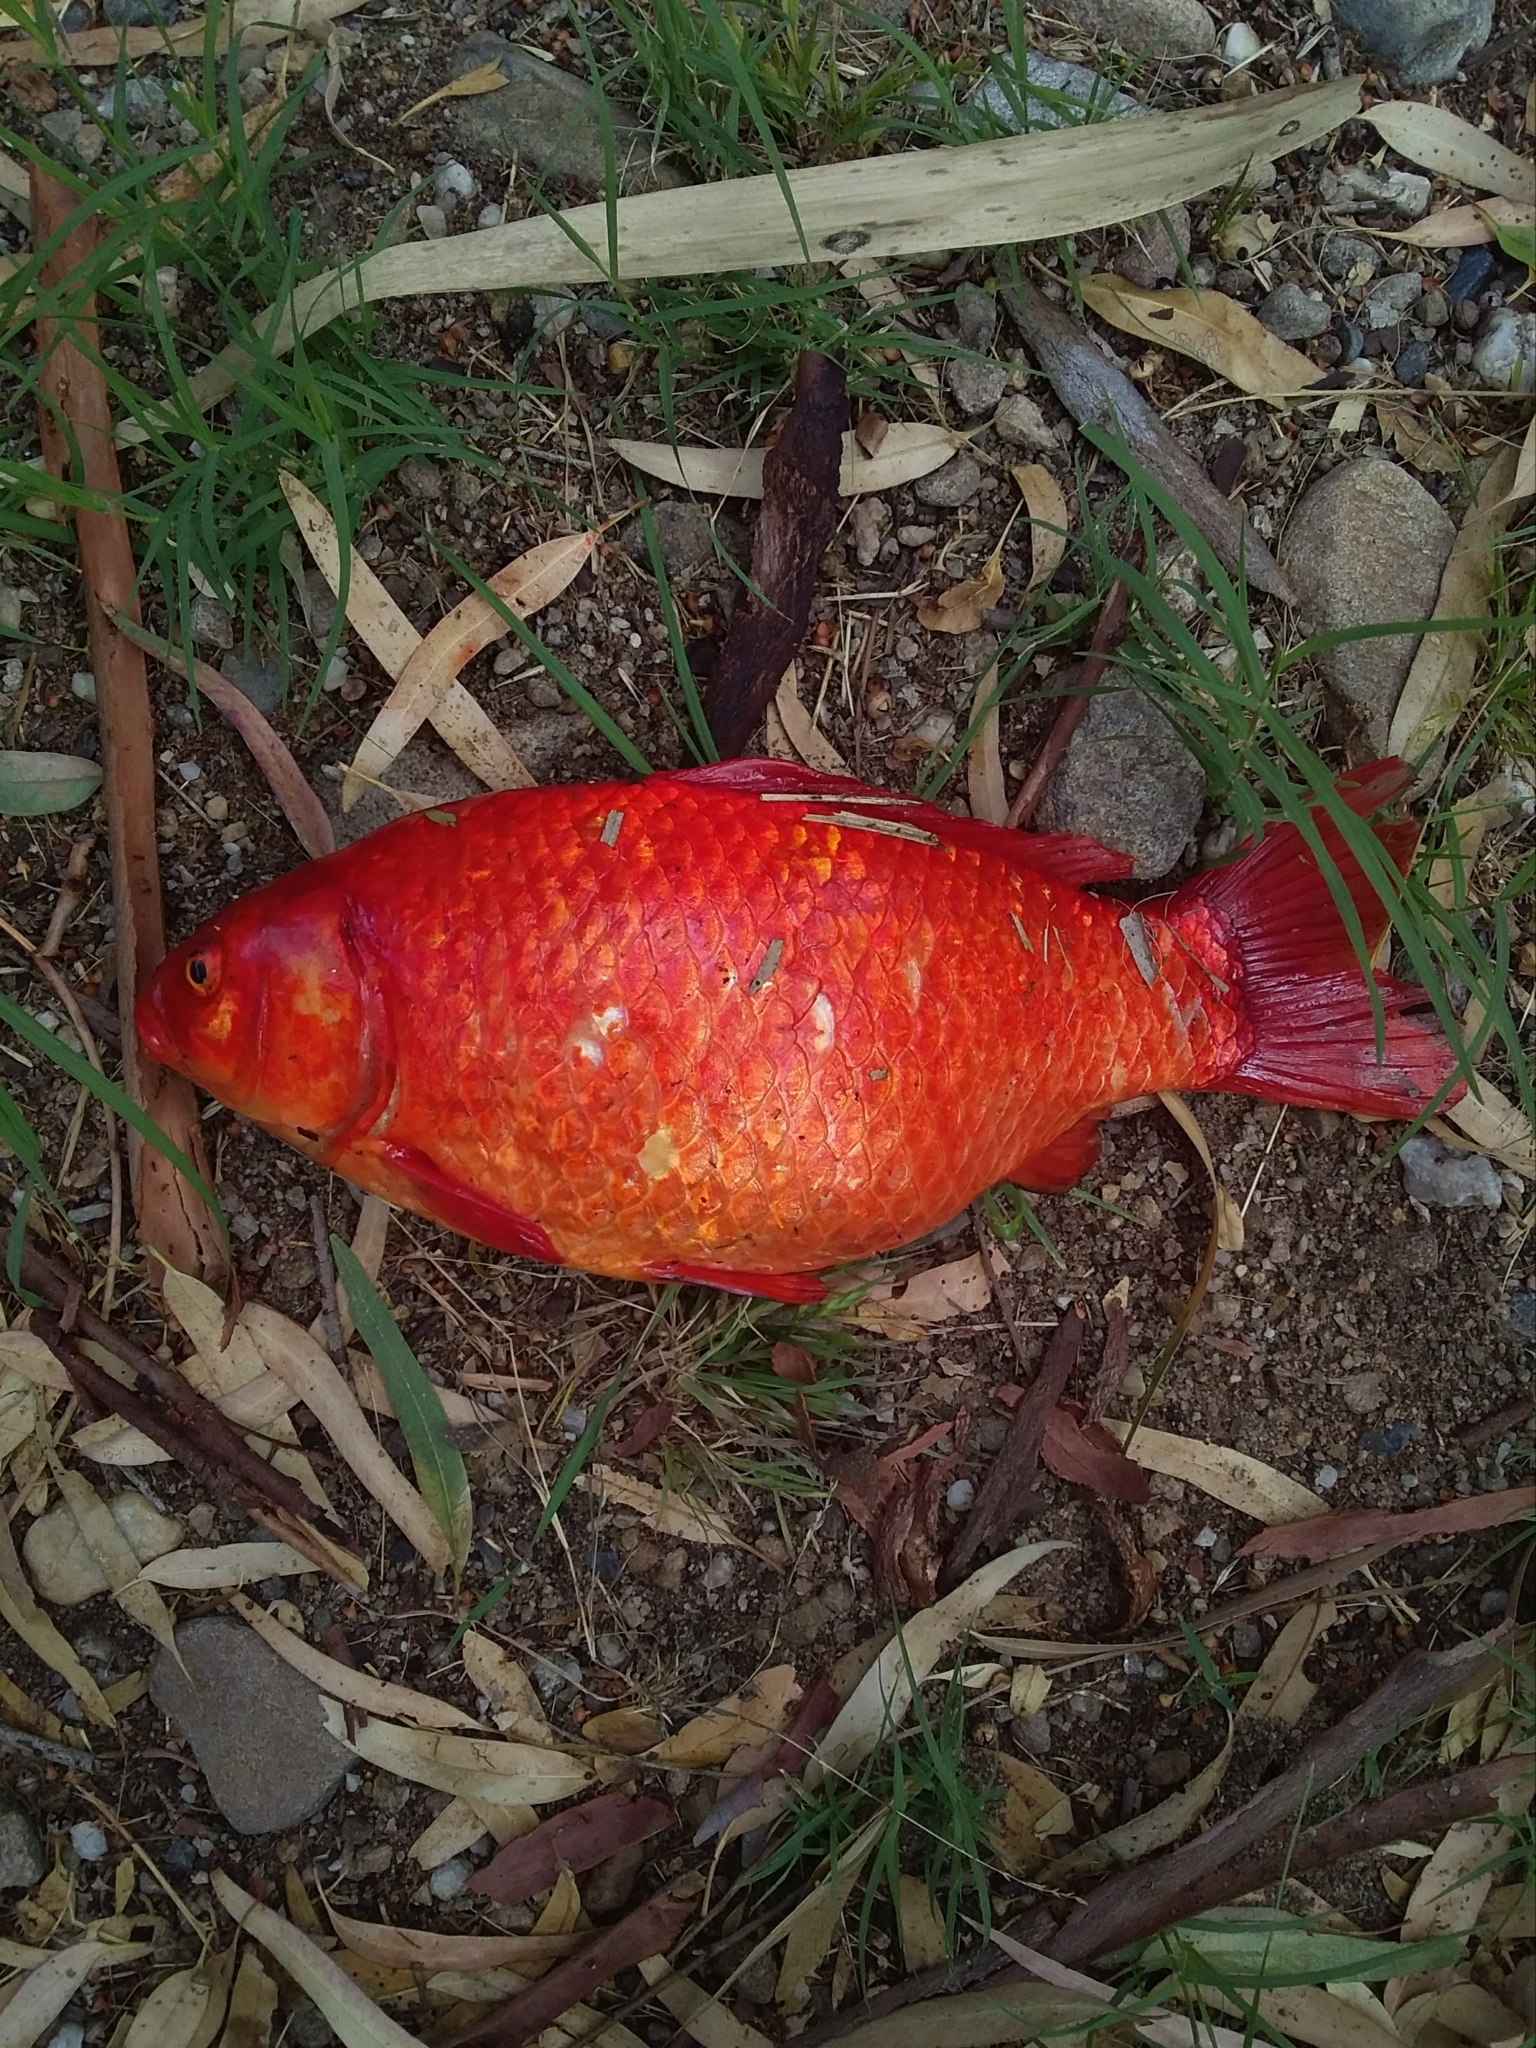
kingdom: Animalia
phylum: Chordata
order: Cypriniformes
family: Cyprinidae
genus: Carassius
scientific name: Carassius auratus
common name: Goldfish
